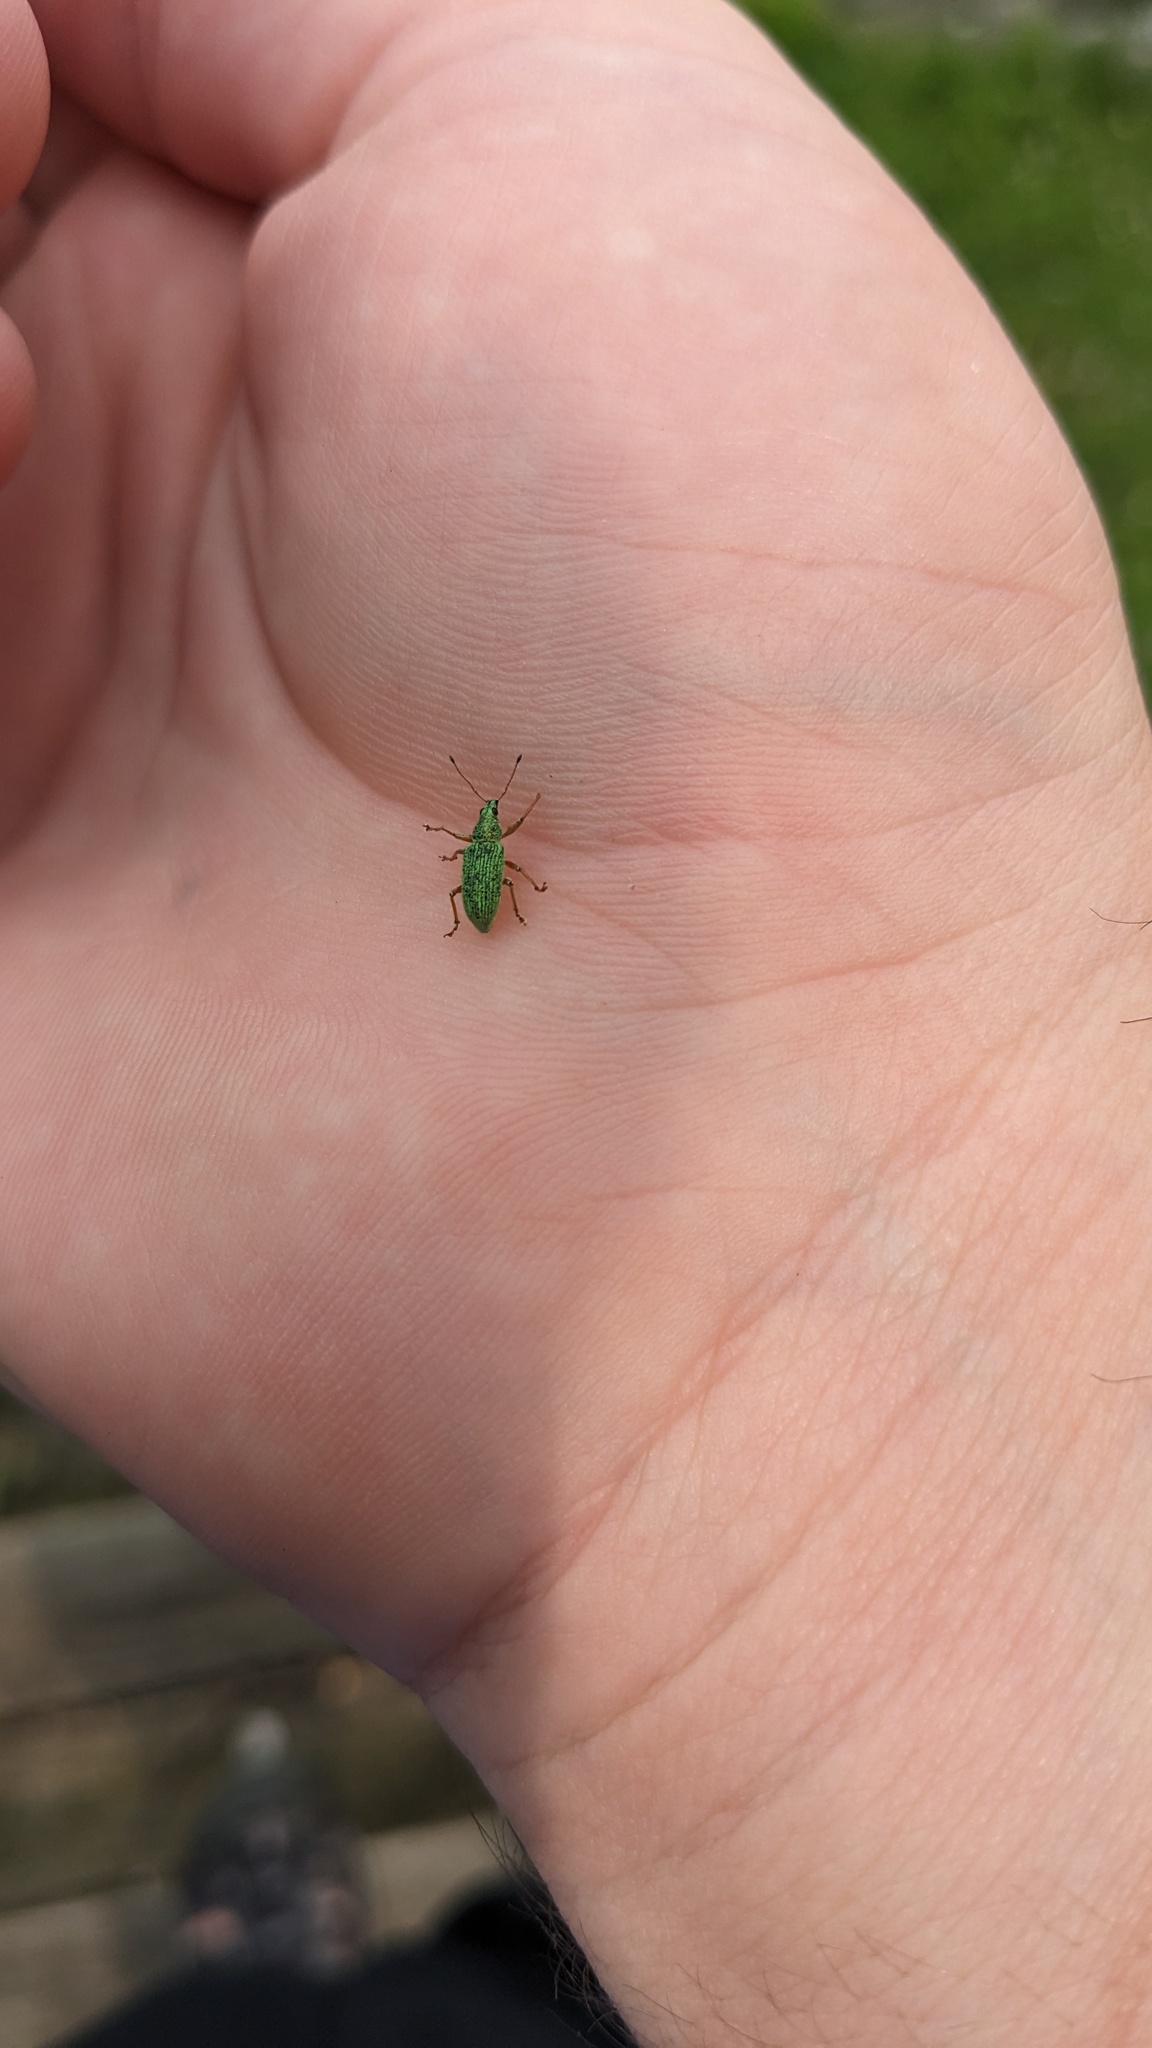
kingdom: Animalia
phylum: Arthropoda
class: Insecta
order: Coleoptera
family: Curculionidae
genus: Polydrusus
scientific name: Polydrusus formosus
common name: Weevil
